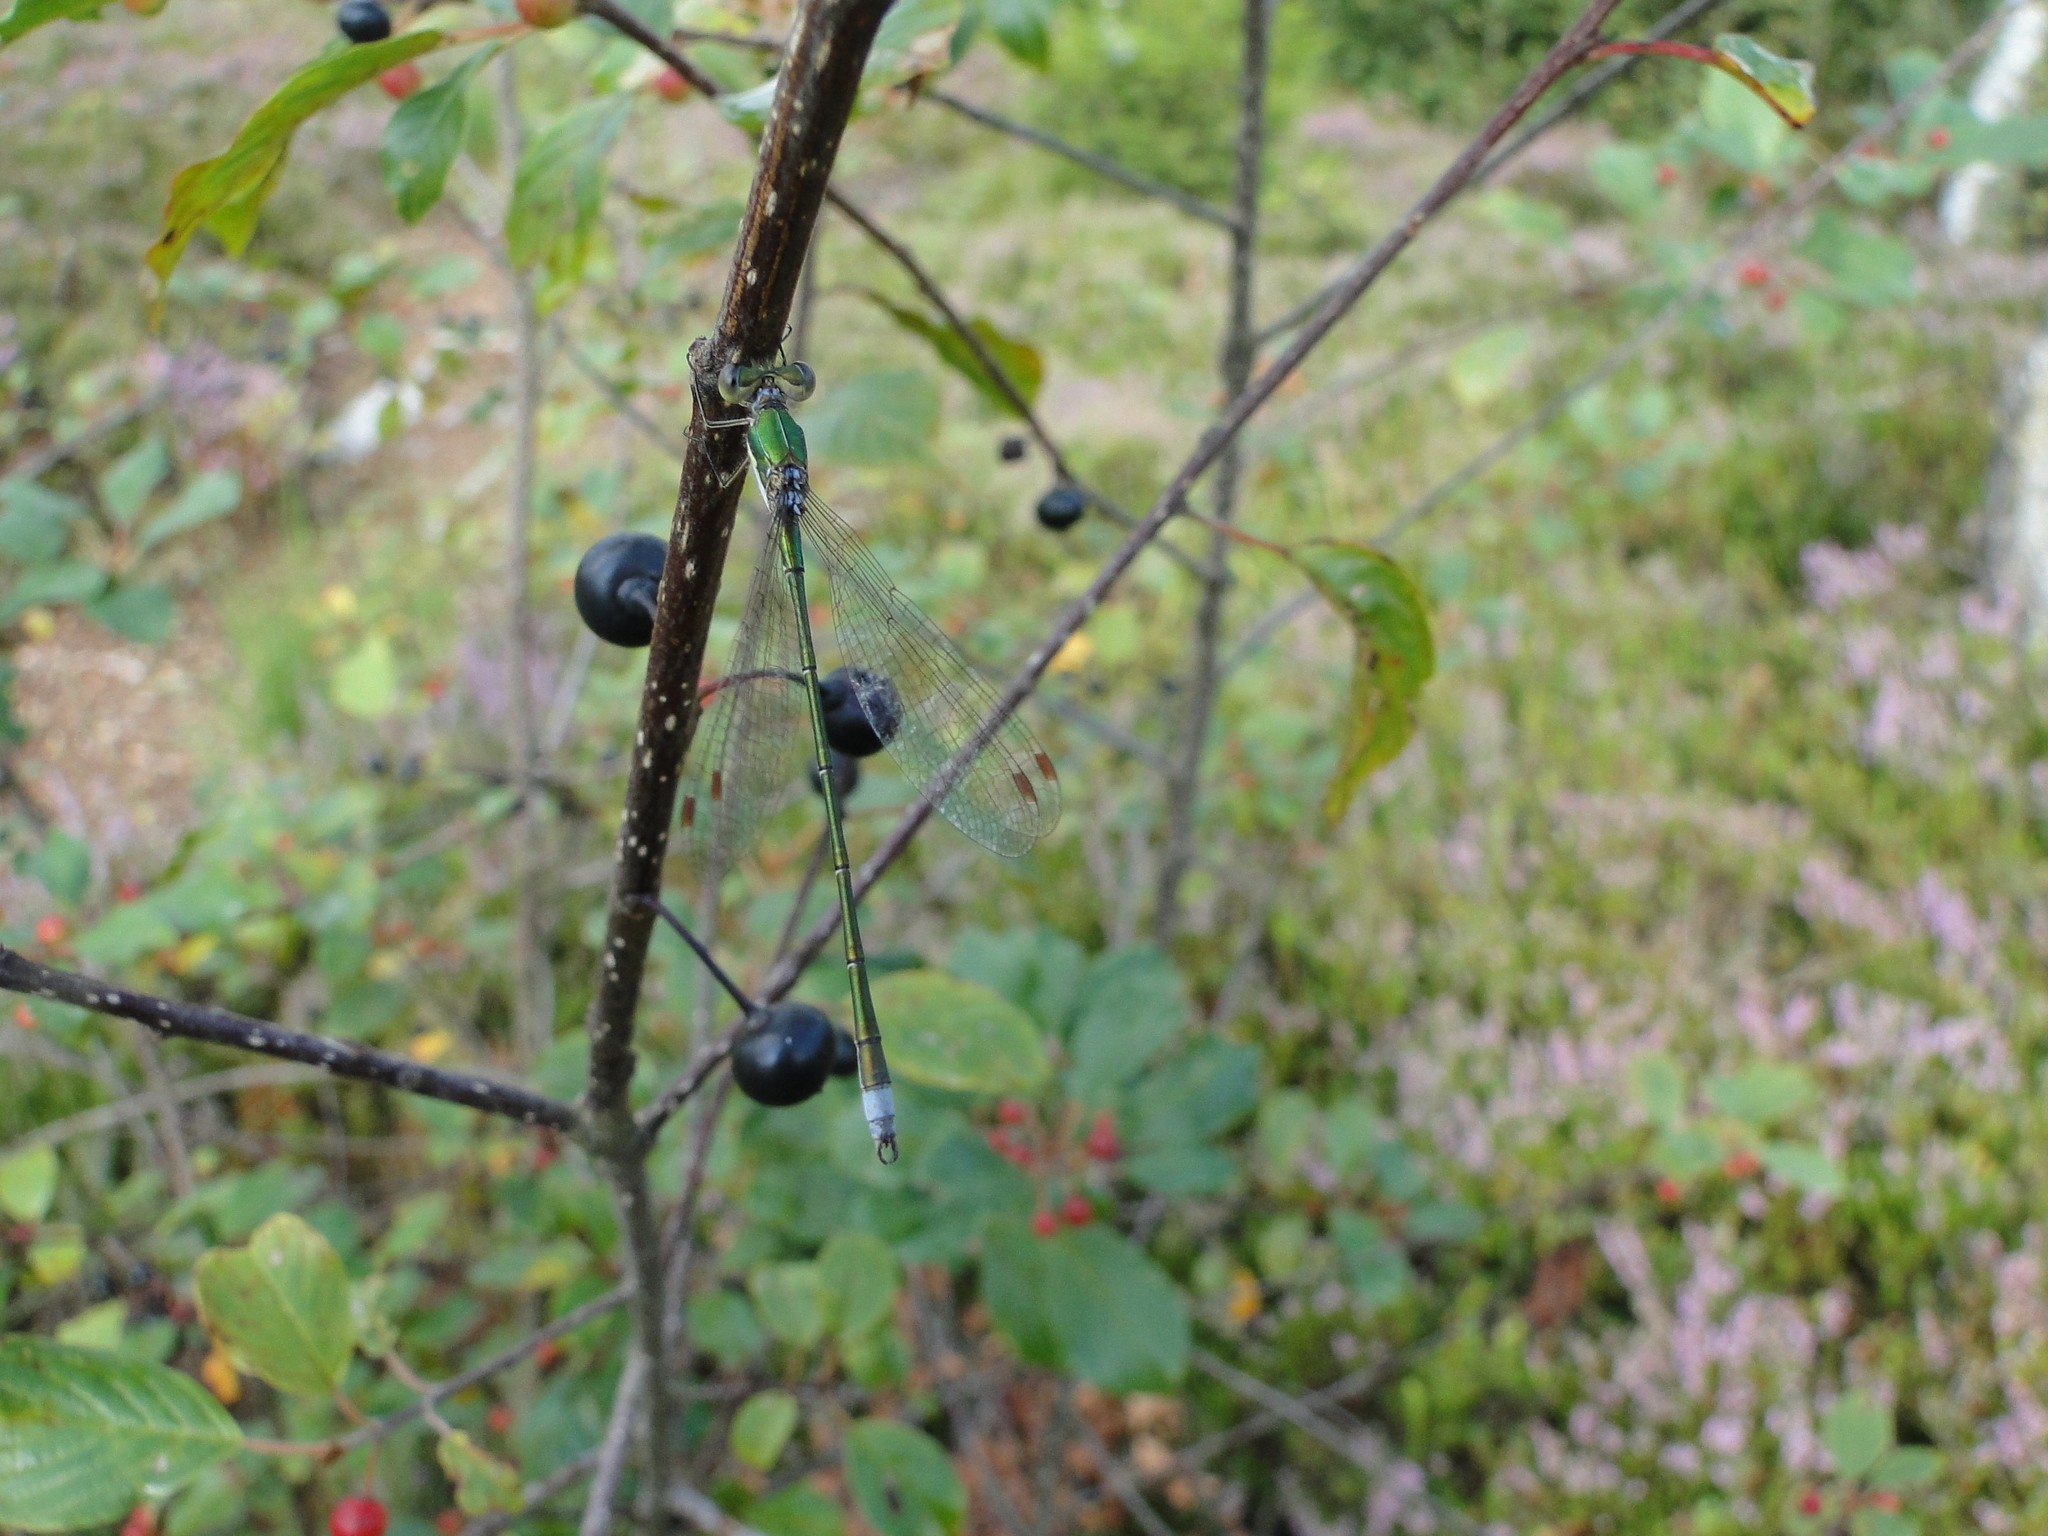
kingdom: Animalia
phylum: Arthropoda
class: Insecta
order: Odonata
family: Lestidae
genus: Lestes
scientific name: Lestes virens
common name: Small emerald spreadwing
